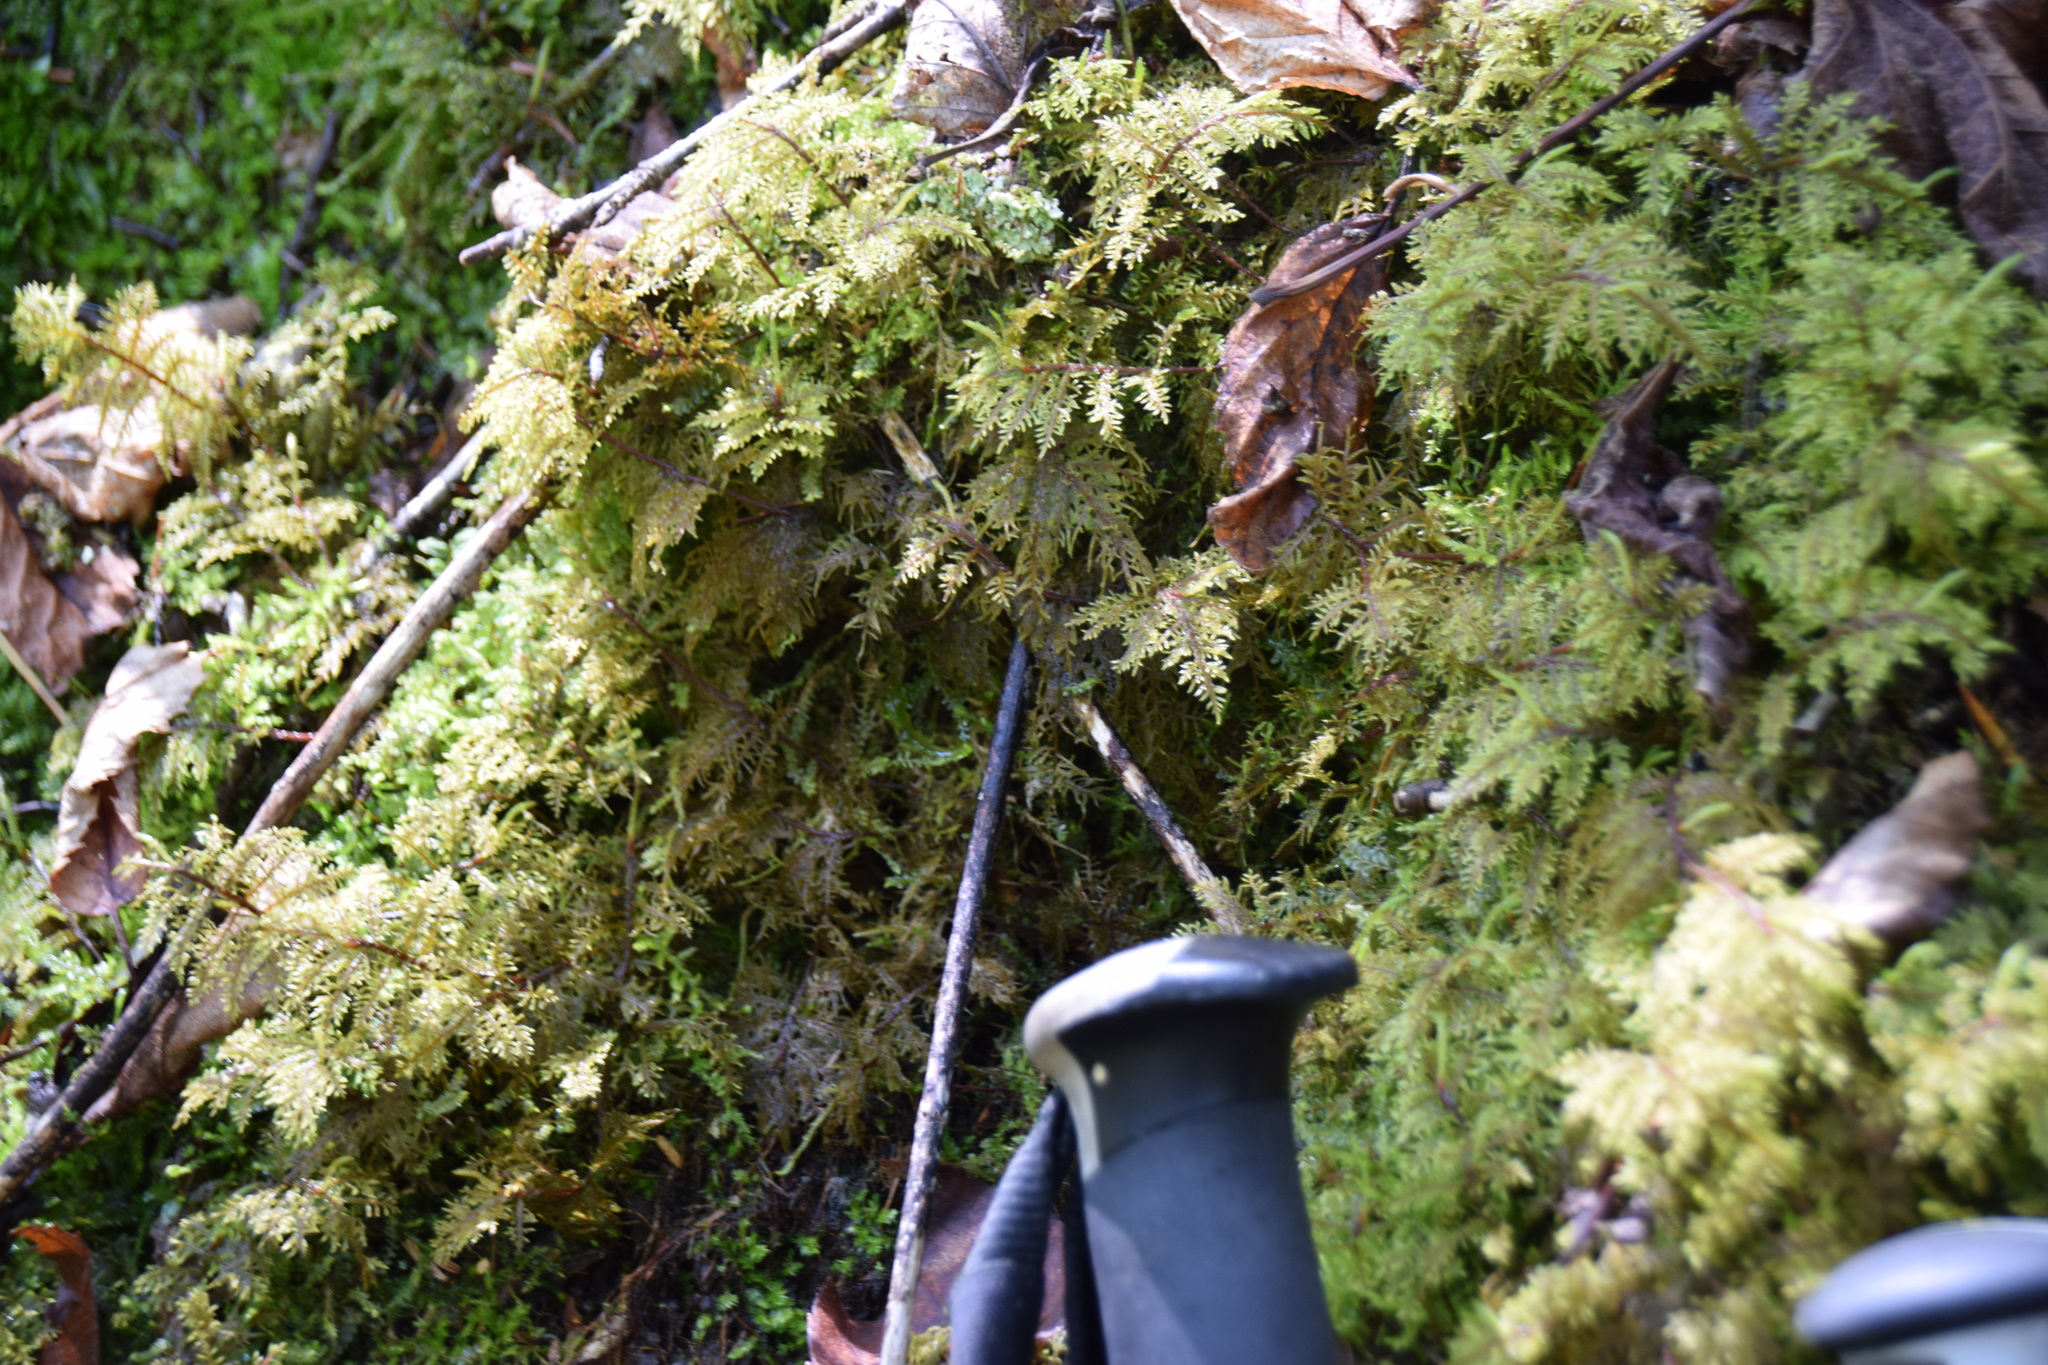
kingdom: Plantae
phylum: Bryophyta
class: Bryopsida
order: Hypnales
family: Hylocomiaceae
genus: Hylocomium
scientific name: Hylocomium splendens
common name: Stairstep moss
